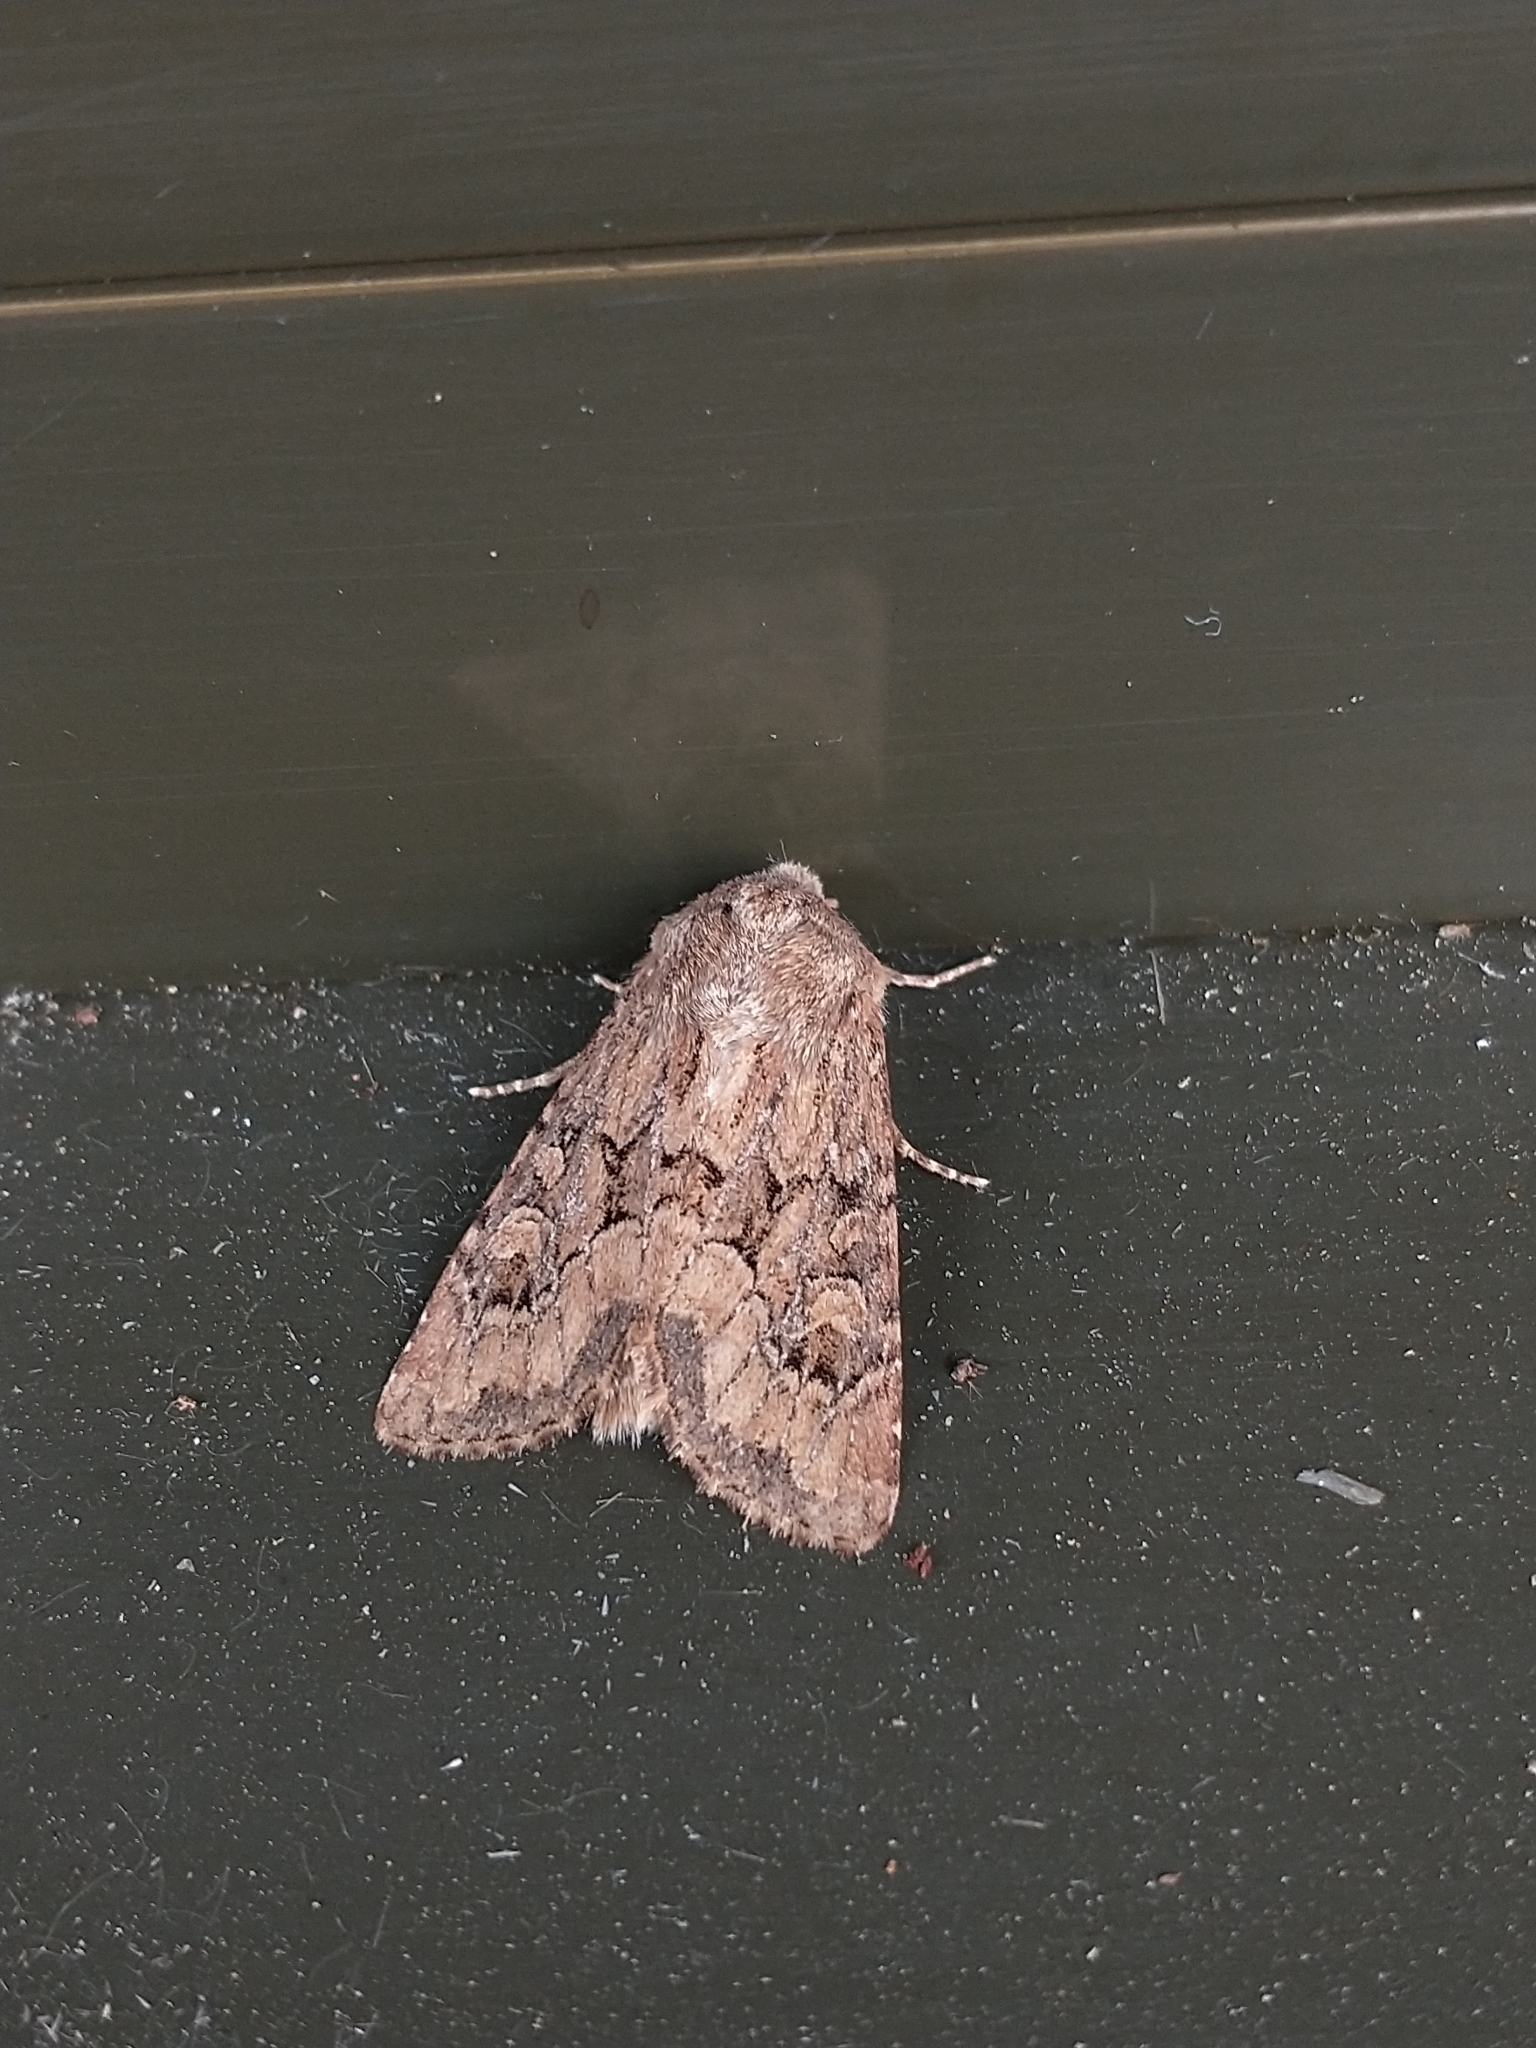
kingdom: Animalia
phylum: Arthropoda
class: Insecta
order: Lepidoptera
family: Noctuidae
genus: Luperina
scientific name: Luperina testacea
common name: Flounced rustic
